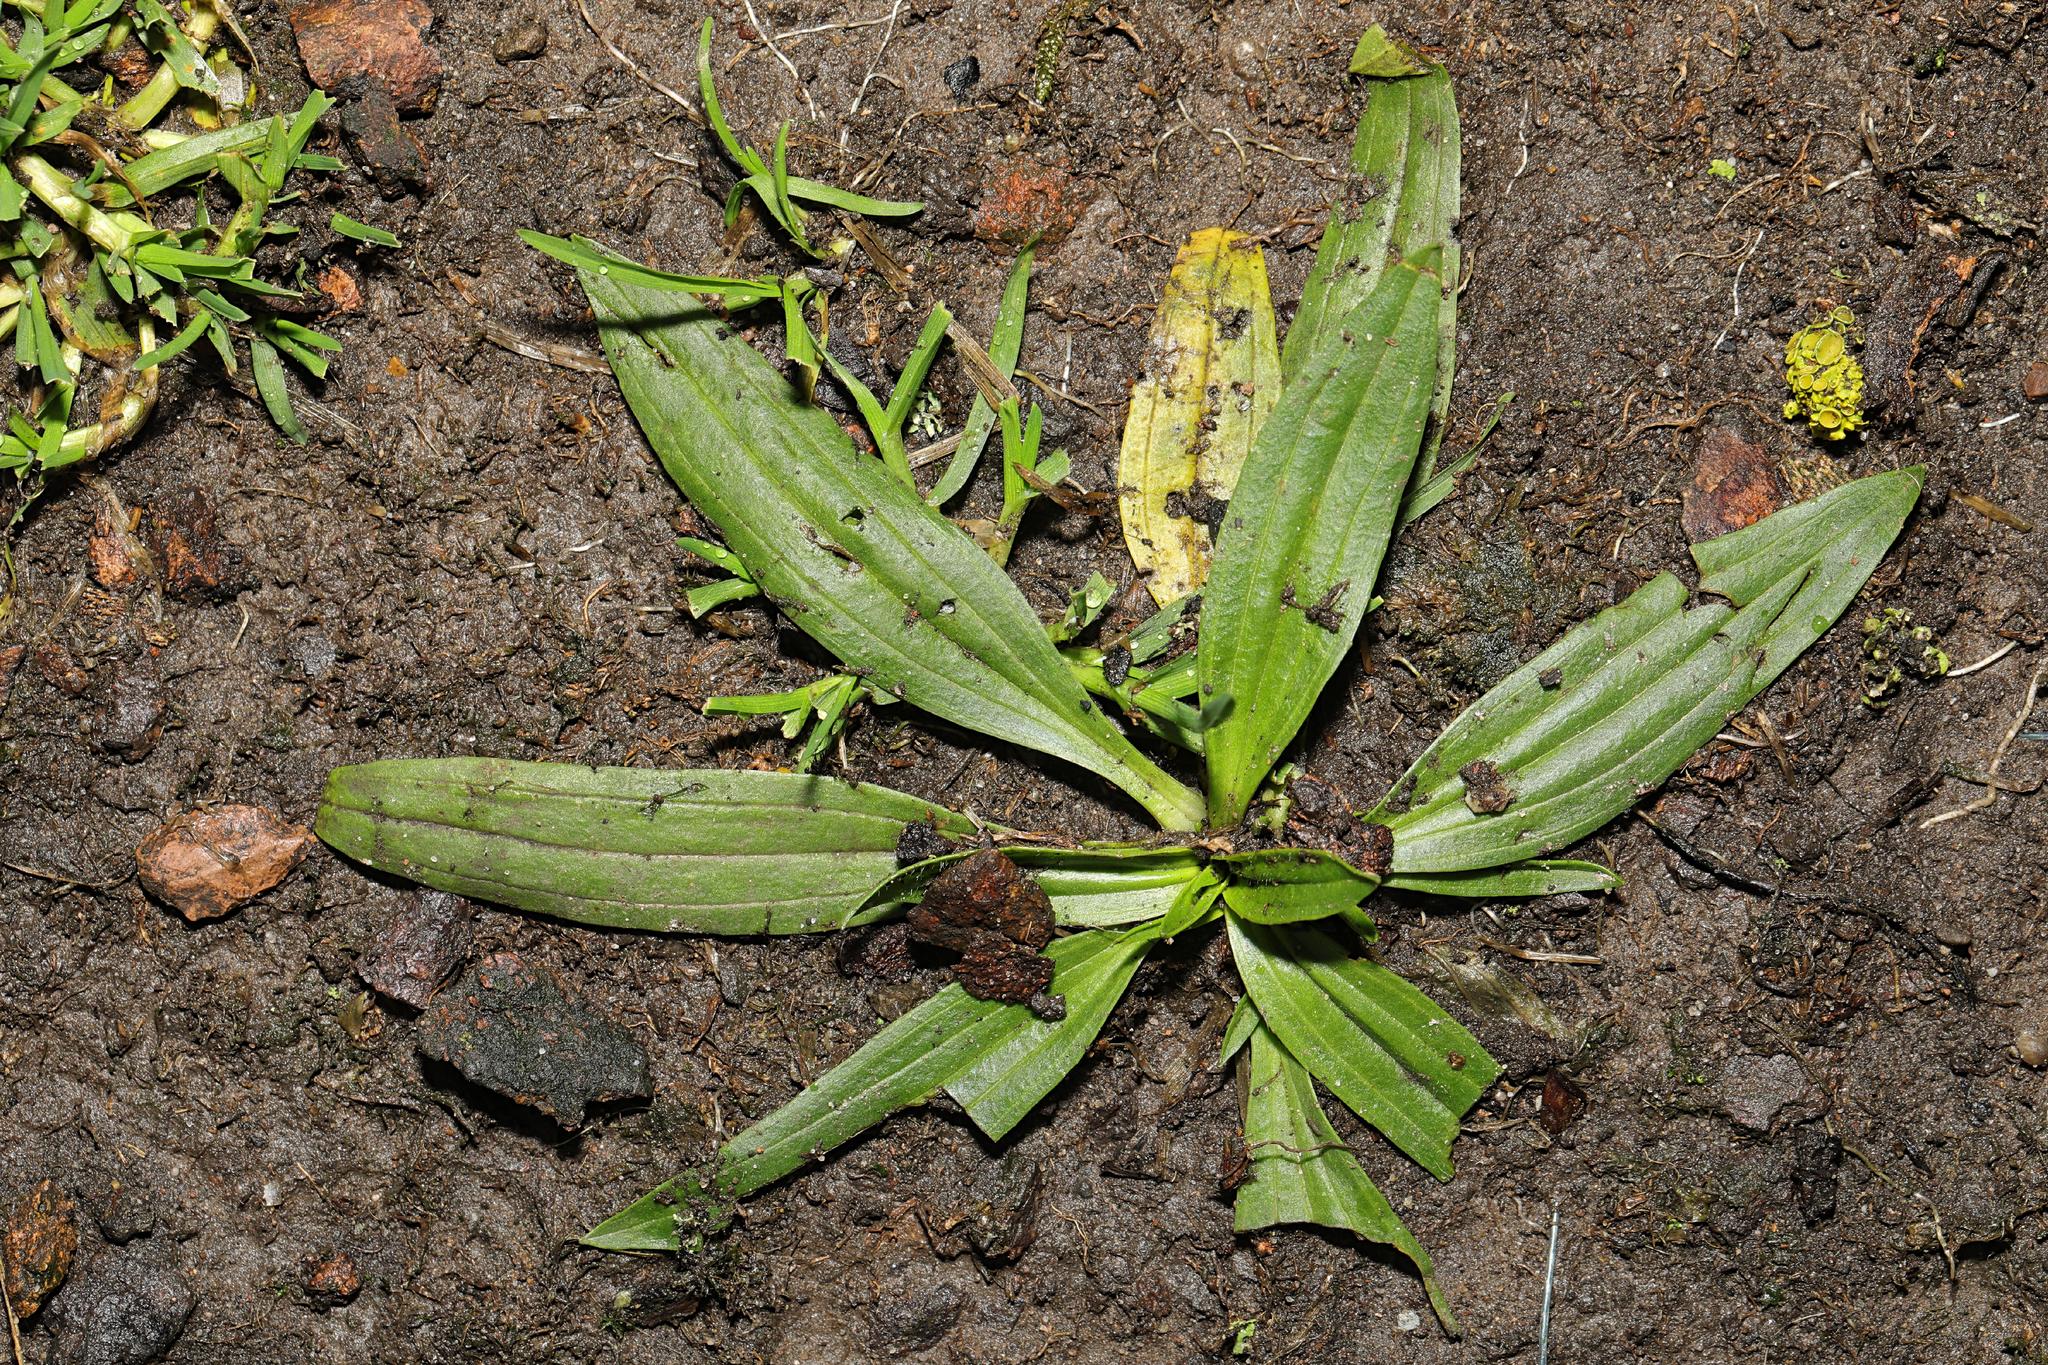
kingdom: Plantae
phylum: Tracheophyta
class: Magnoliopsida
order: Lamiales
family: Plantaginaceae
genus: Plantago
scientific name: Plantago lanceolata
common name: Ribwort plantain
